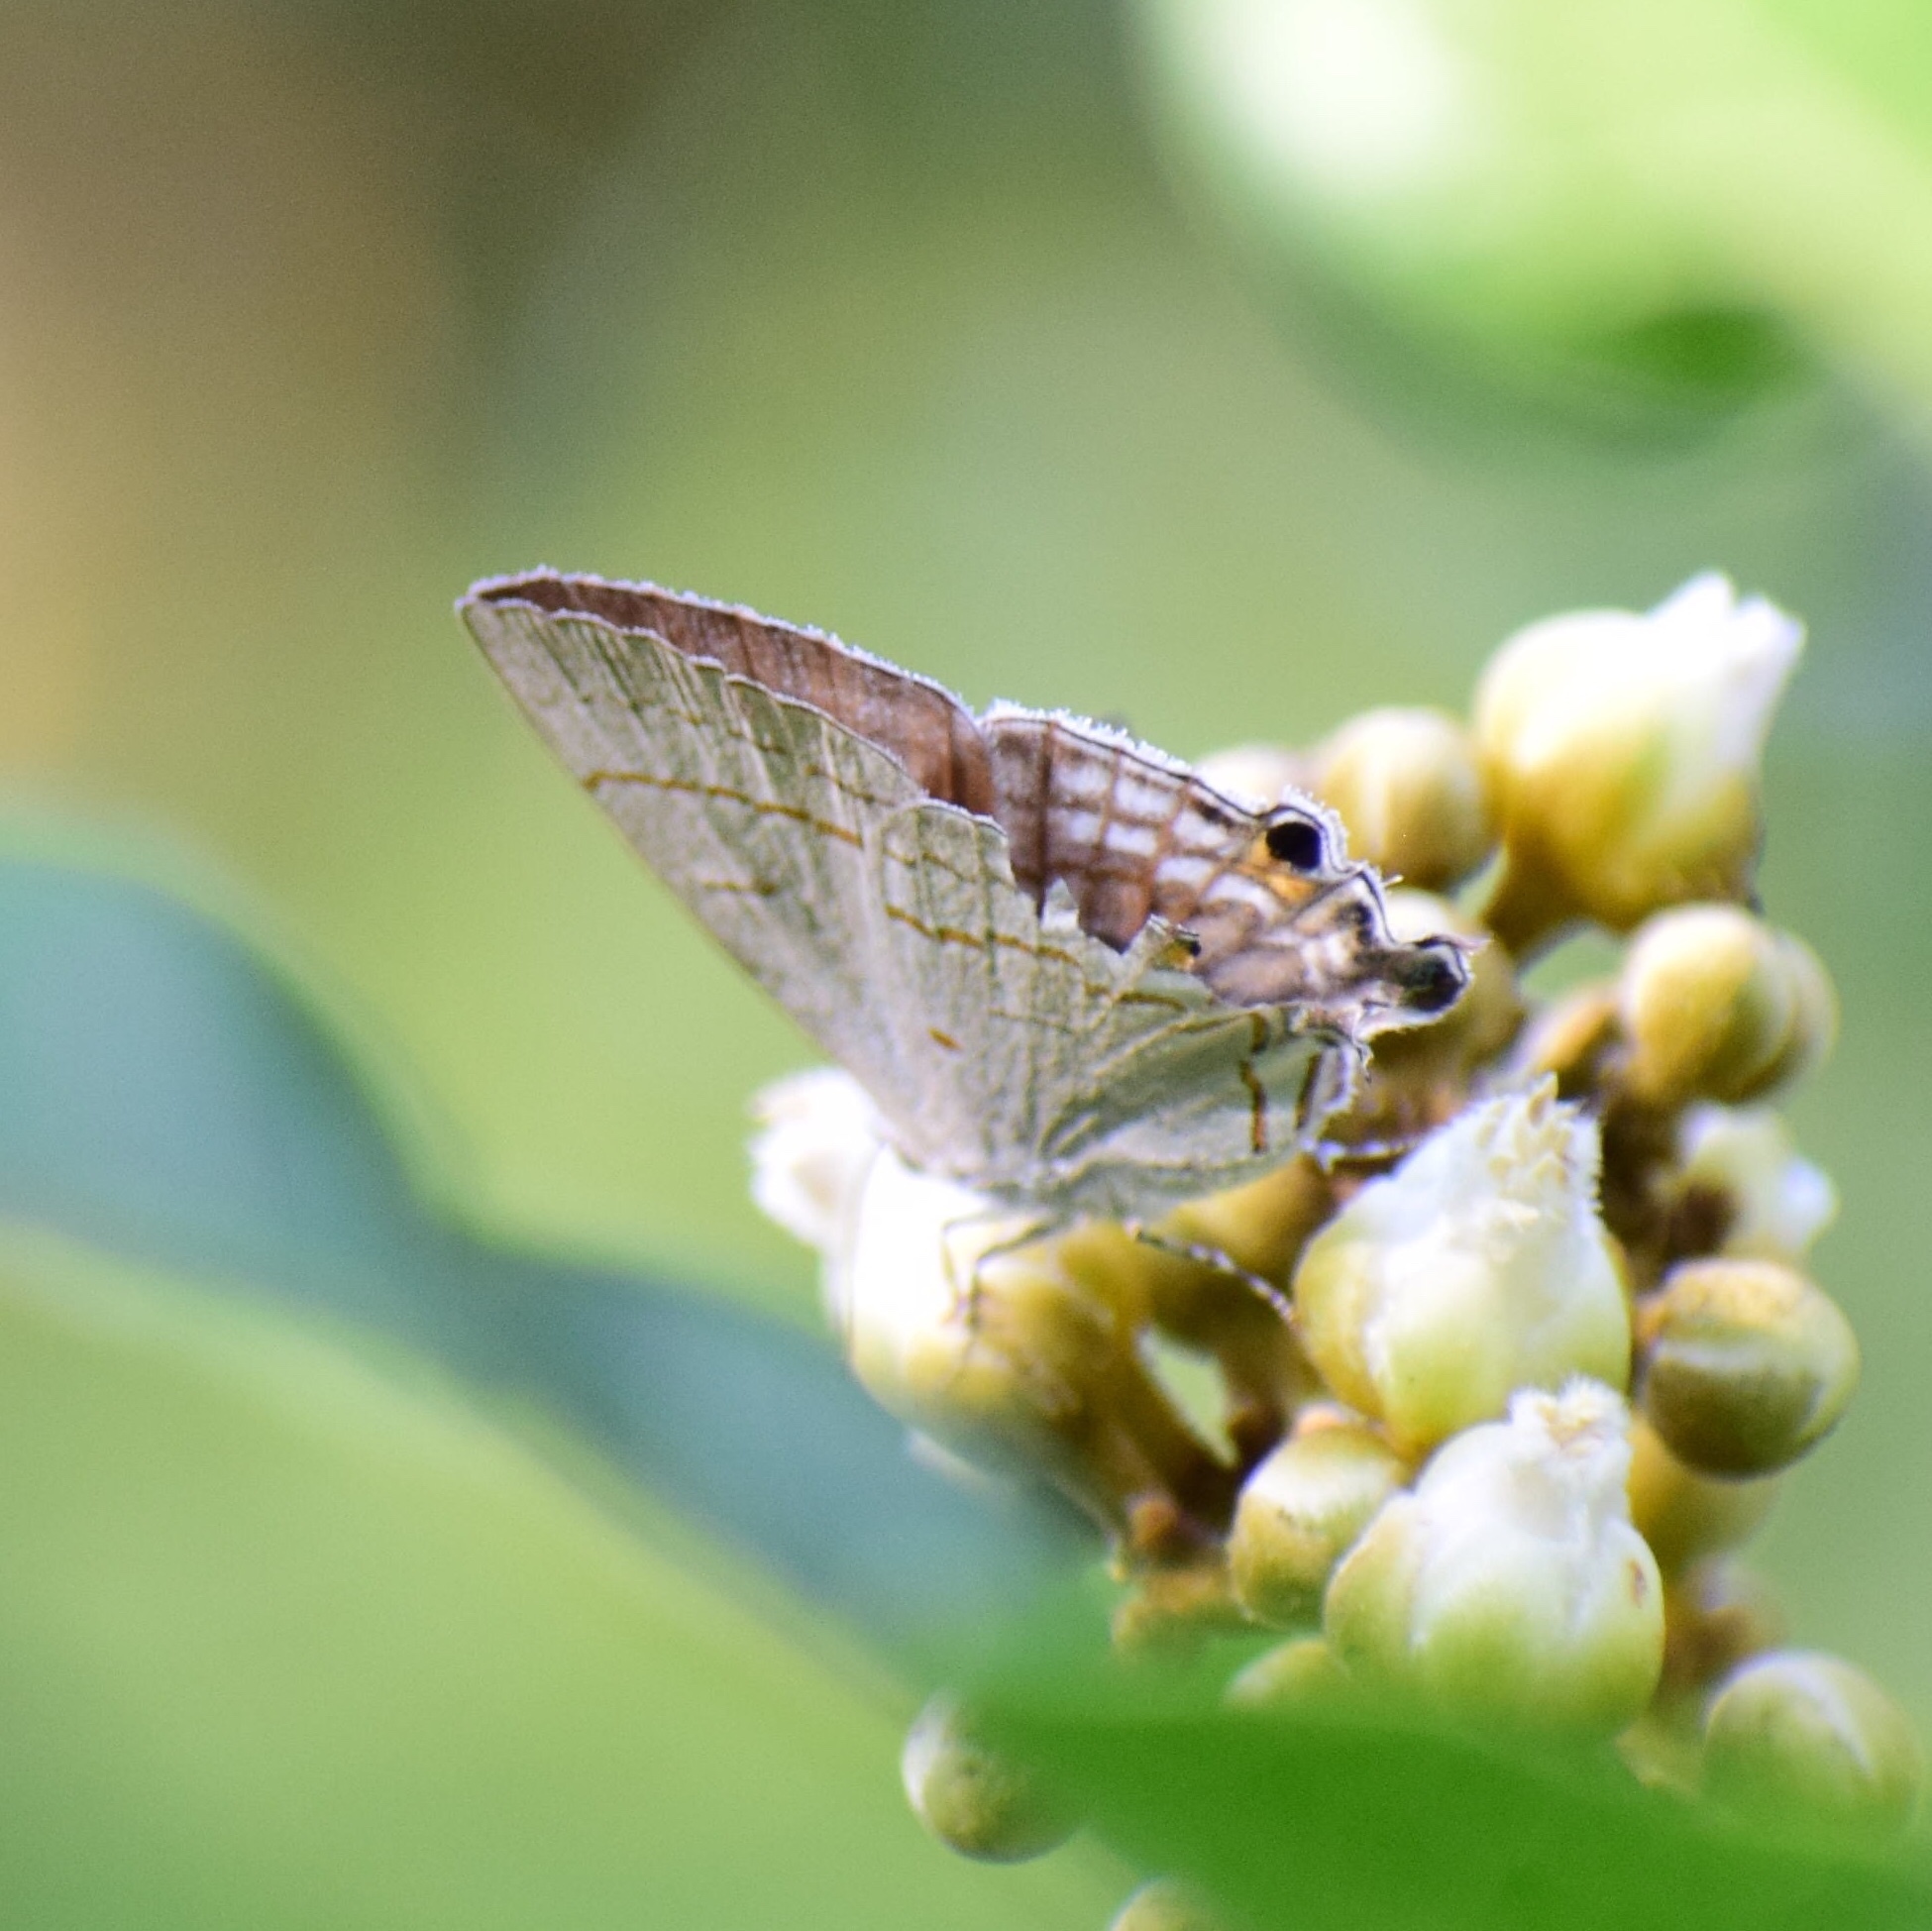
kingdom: Animalia
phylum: Arthropoda
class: Insecta
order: Lepidoptera
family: Lycaenidae
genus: Hypolycaena
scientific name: Hypolycaena philippus
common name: Common hairstreak
